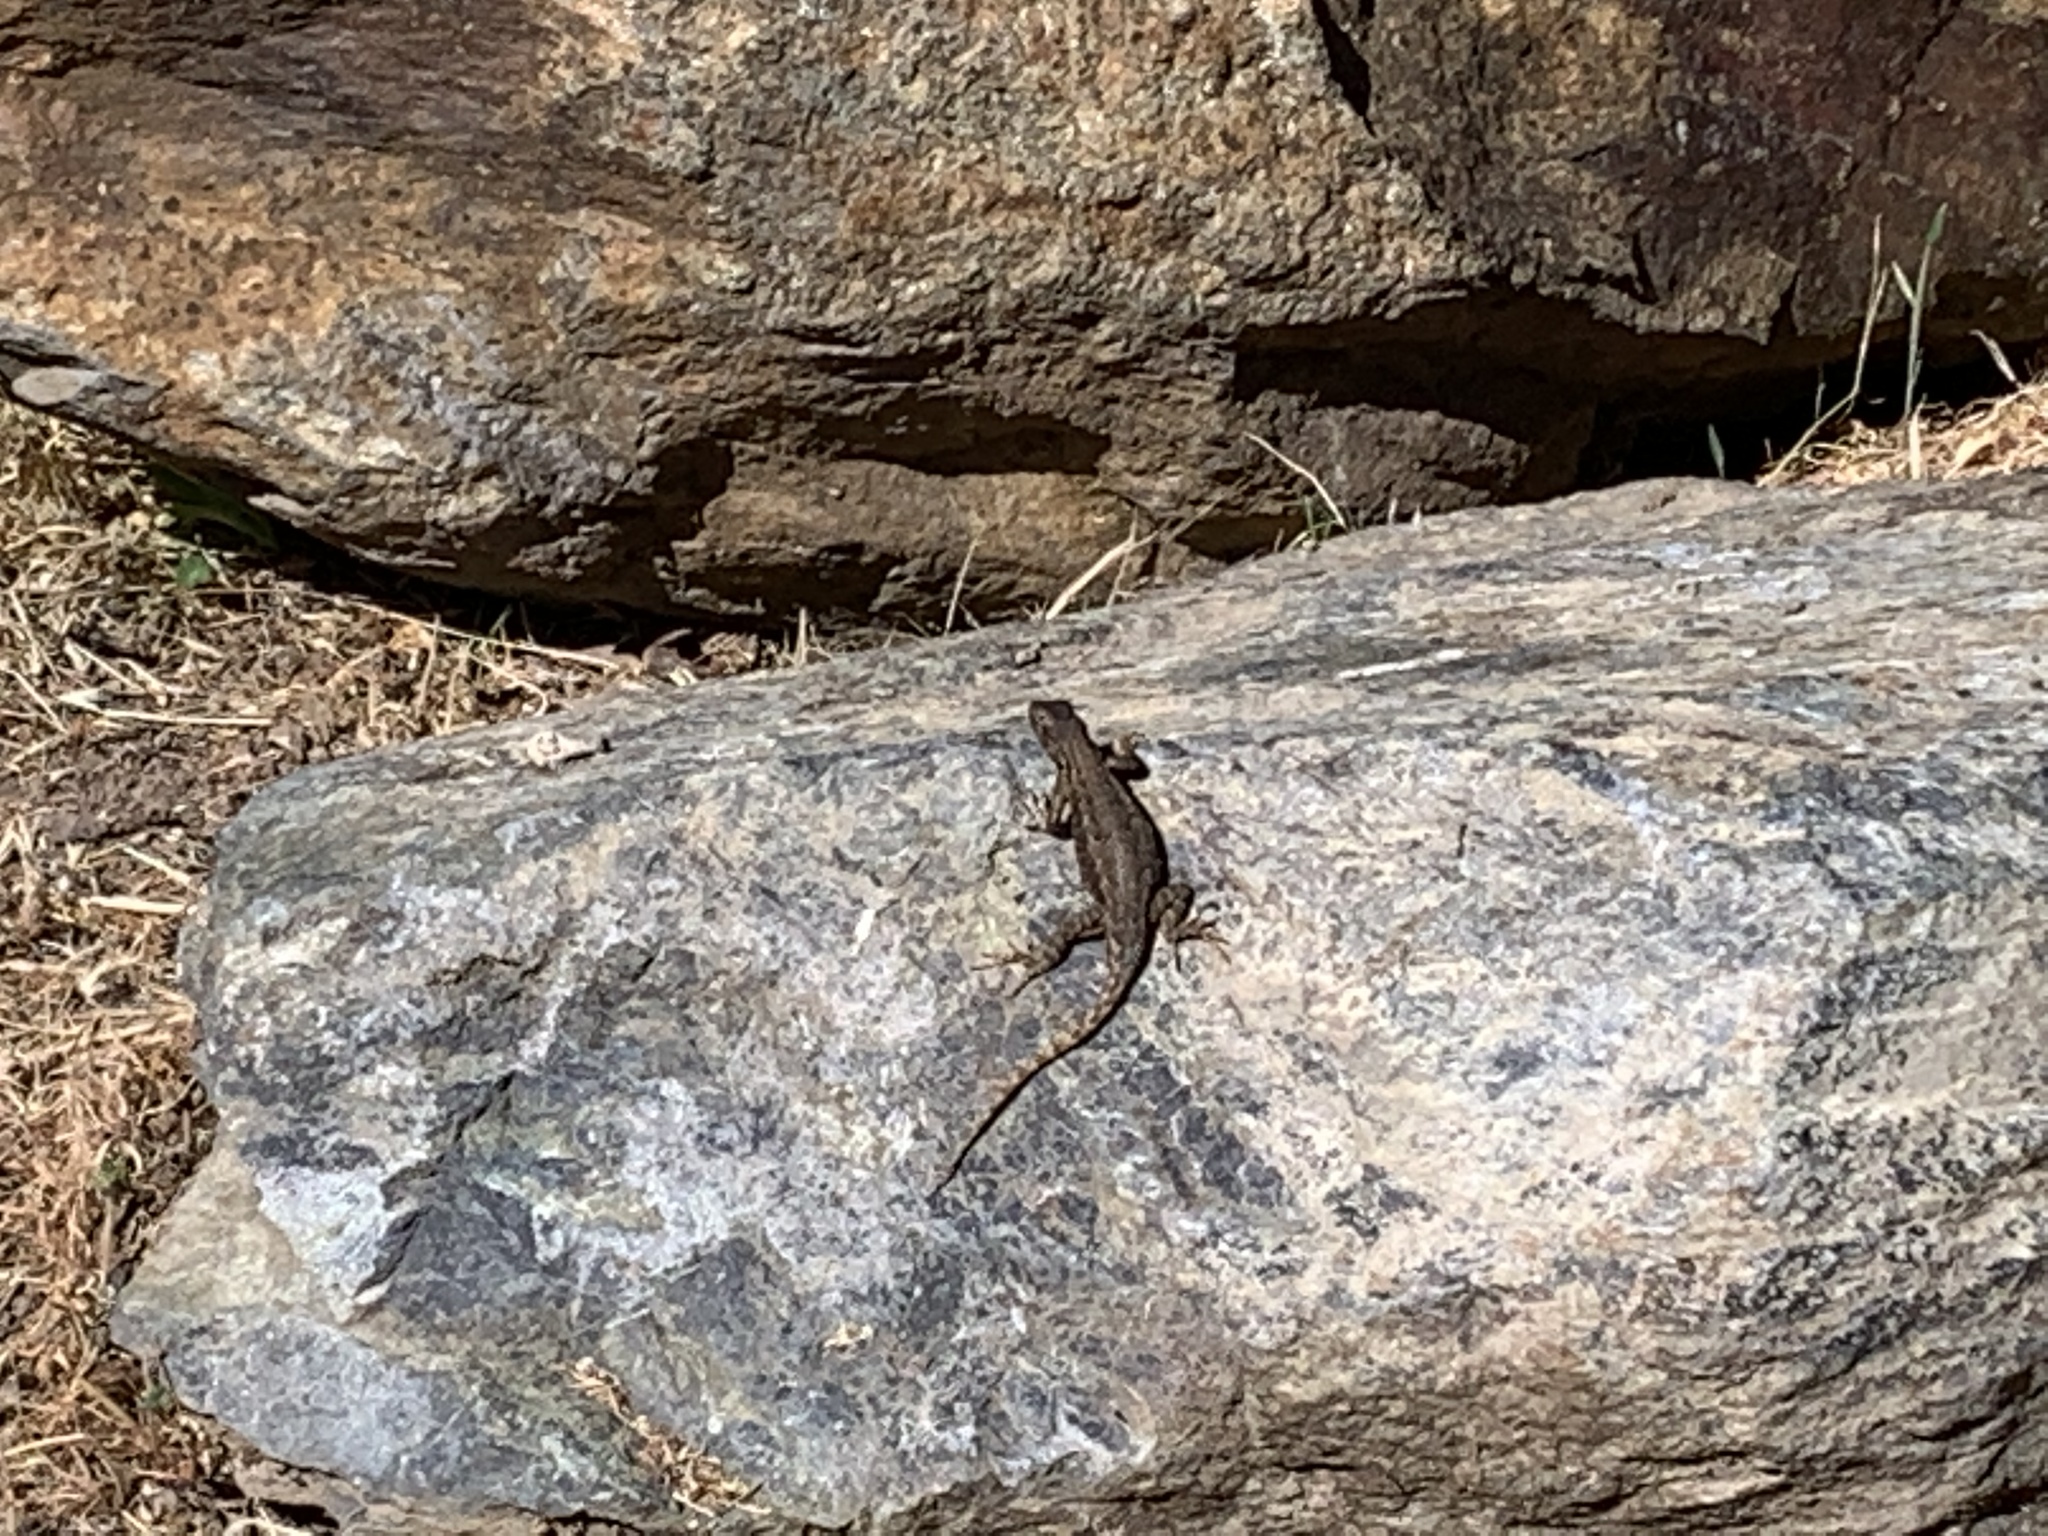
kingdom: Animalia
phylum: Chordata
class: Squamata
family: Phrynosomatidae
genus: Sceloporus
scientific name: Sceloporus occidentalis
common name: Western fence lizard
